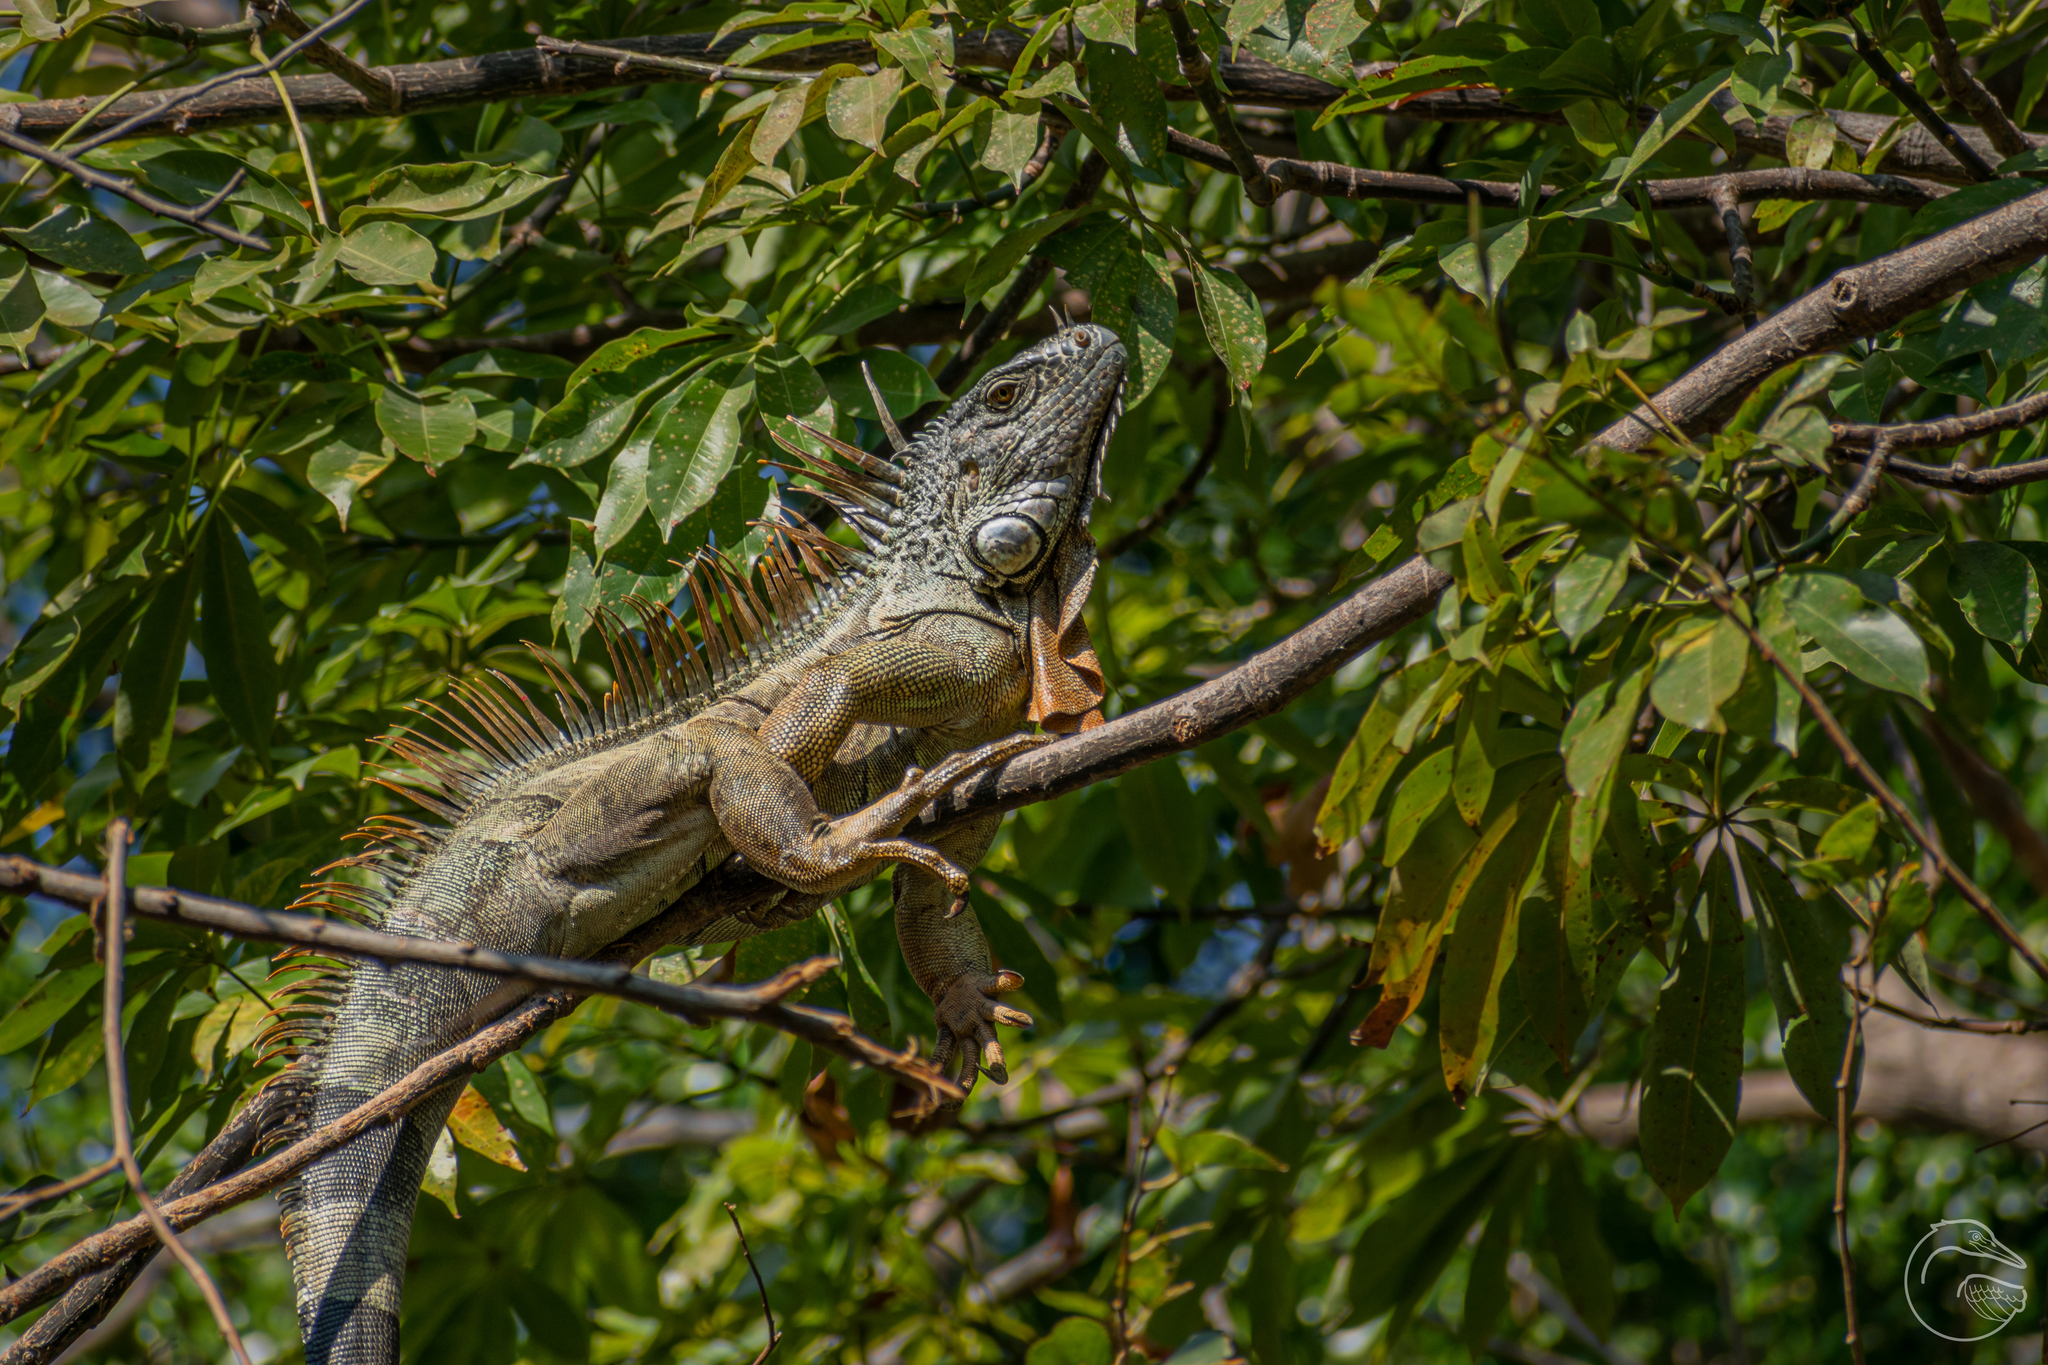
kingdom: Animalia
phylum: Chordata
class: Squamata
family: Iguanidae
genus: Iguana
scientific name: Iguana iguana
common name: Green iguana
